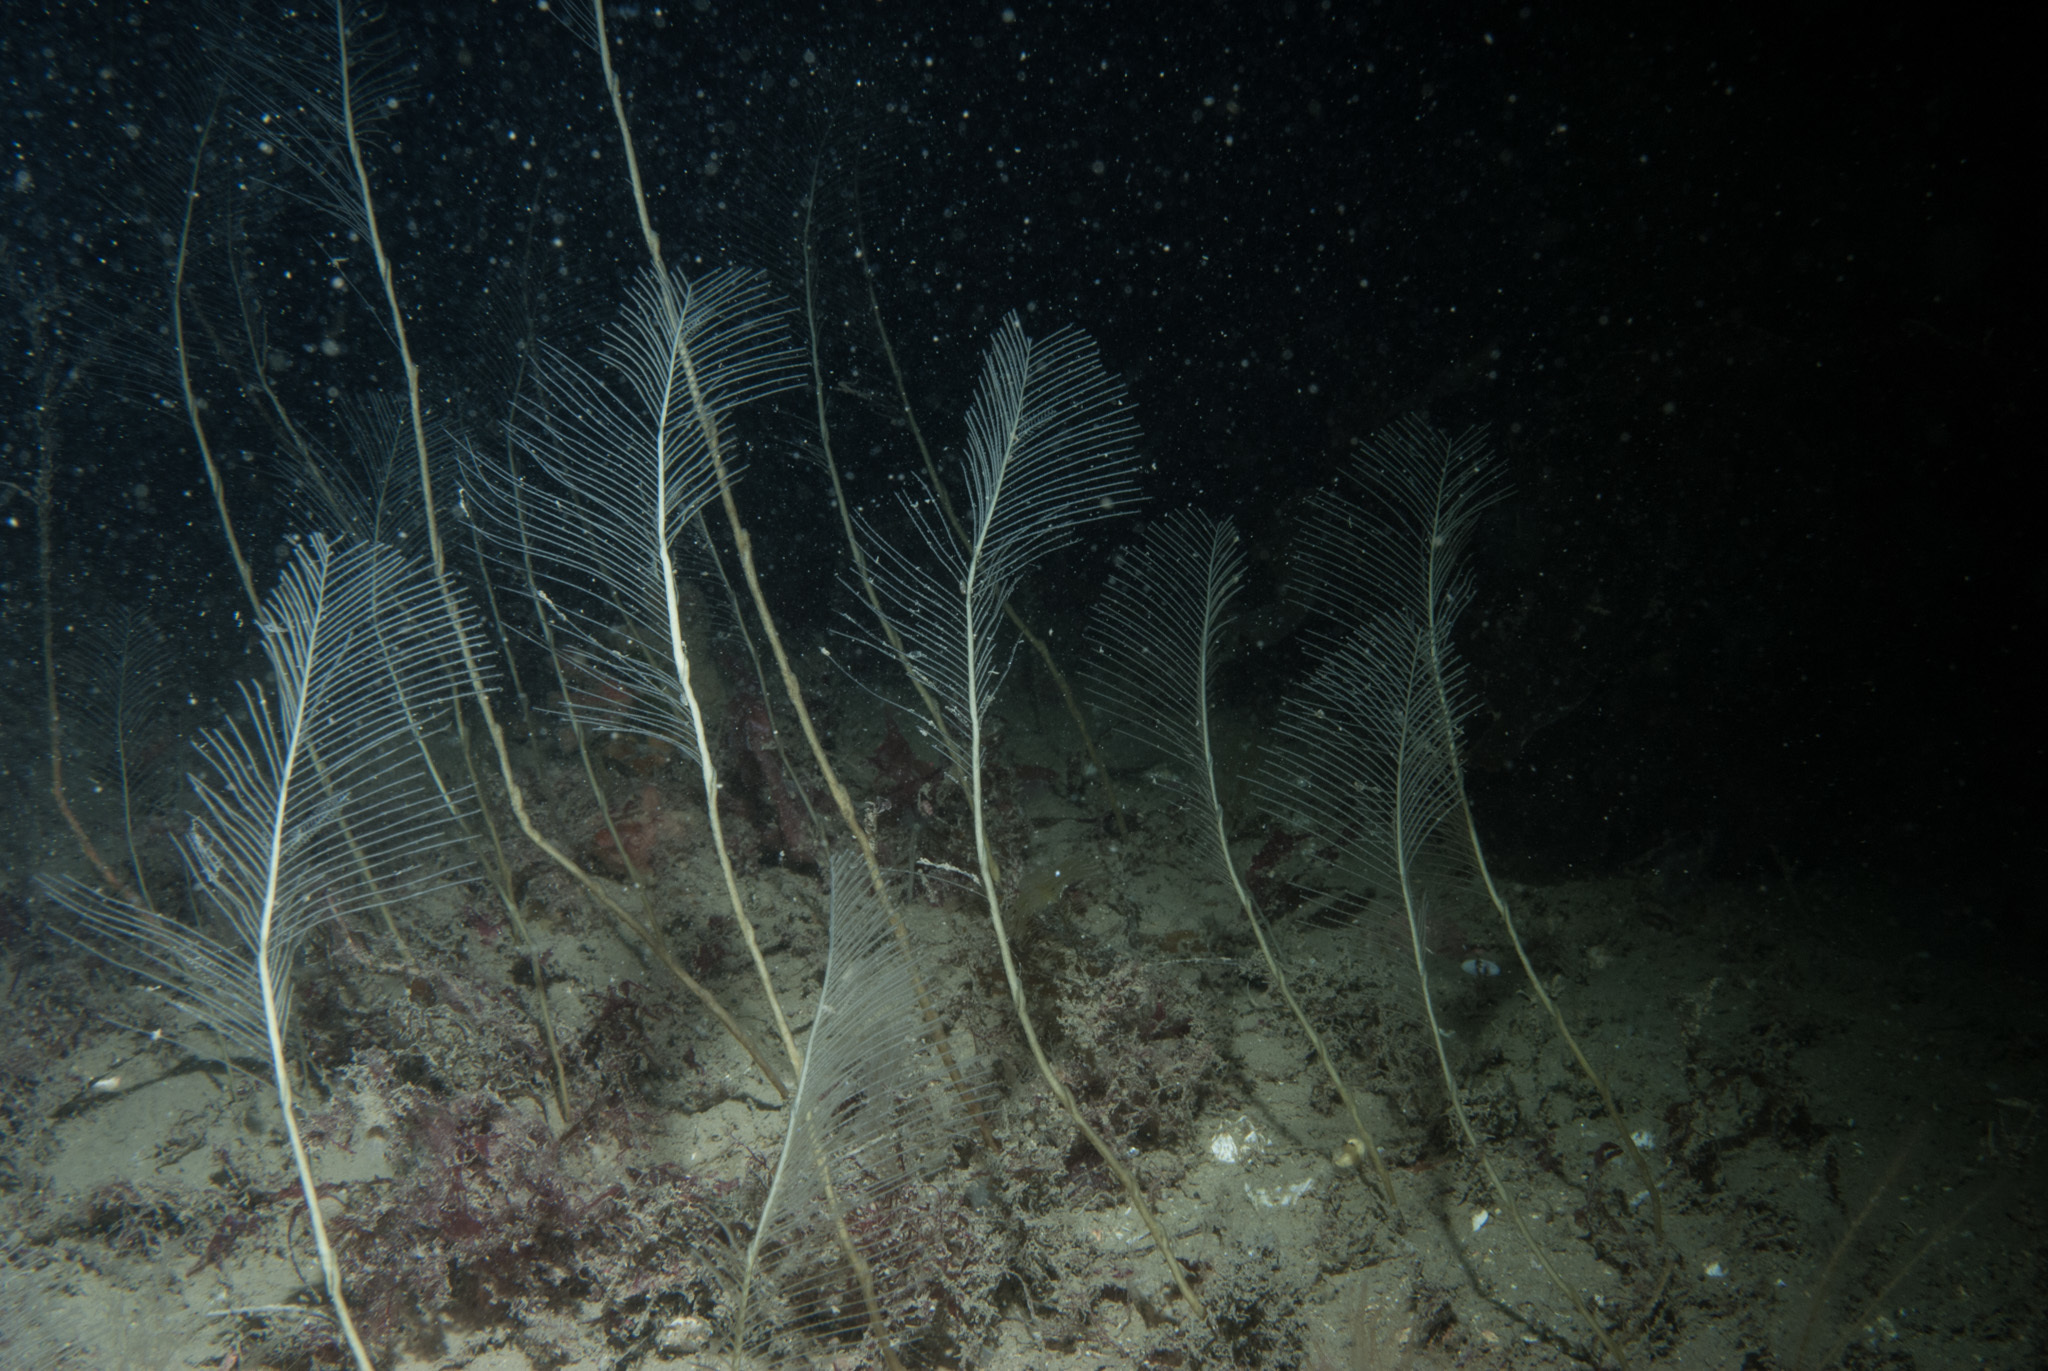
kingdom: Animalia
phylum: Cnidaria
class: Hydrozoa
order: Leptothecata
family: Aglaopheniidae
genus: Lytocarpia
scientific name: Lytocarpia myriophyllum
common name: Pheasant-tail hydroid
